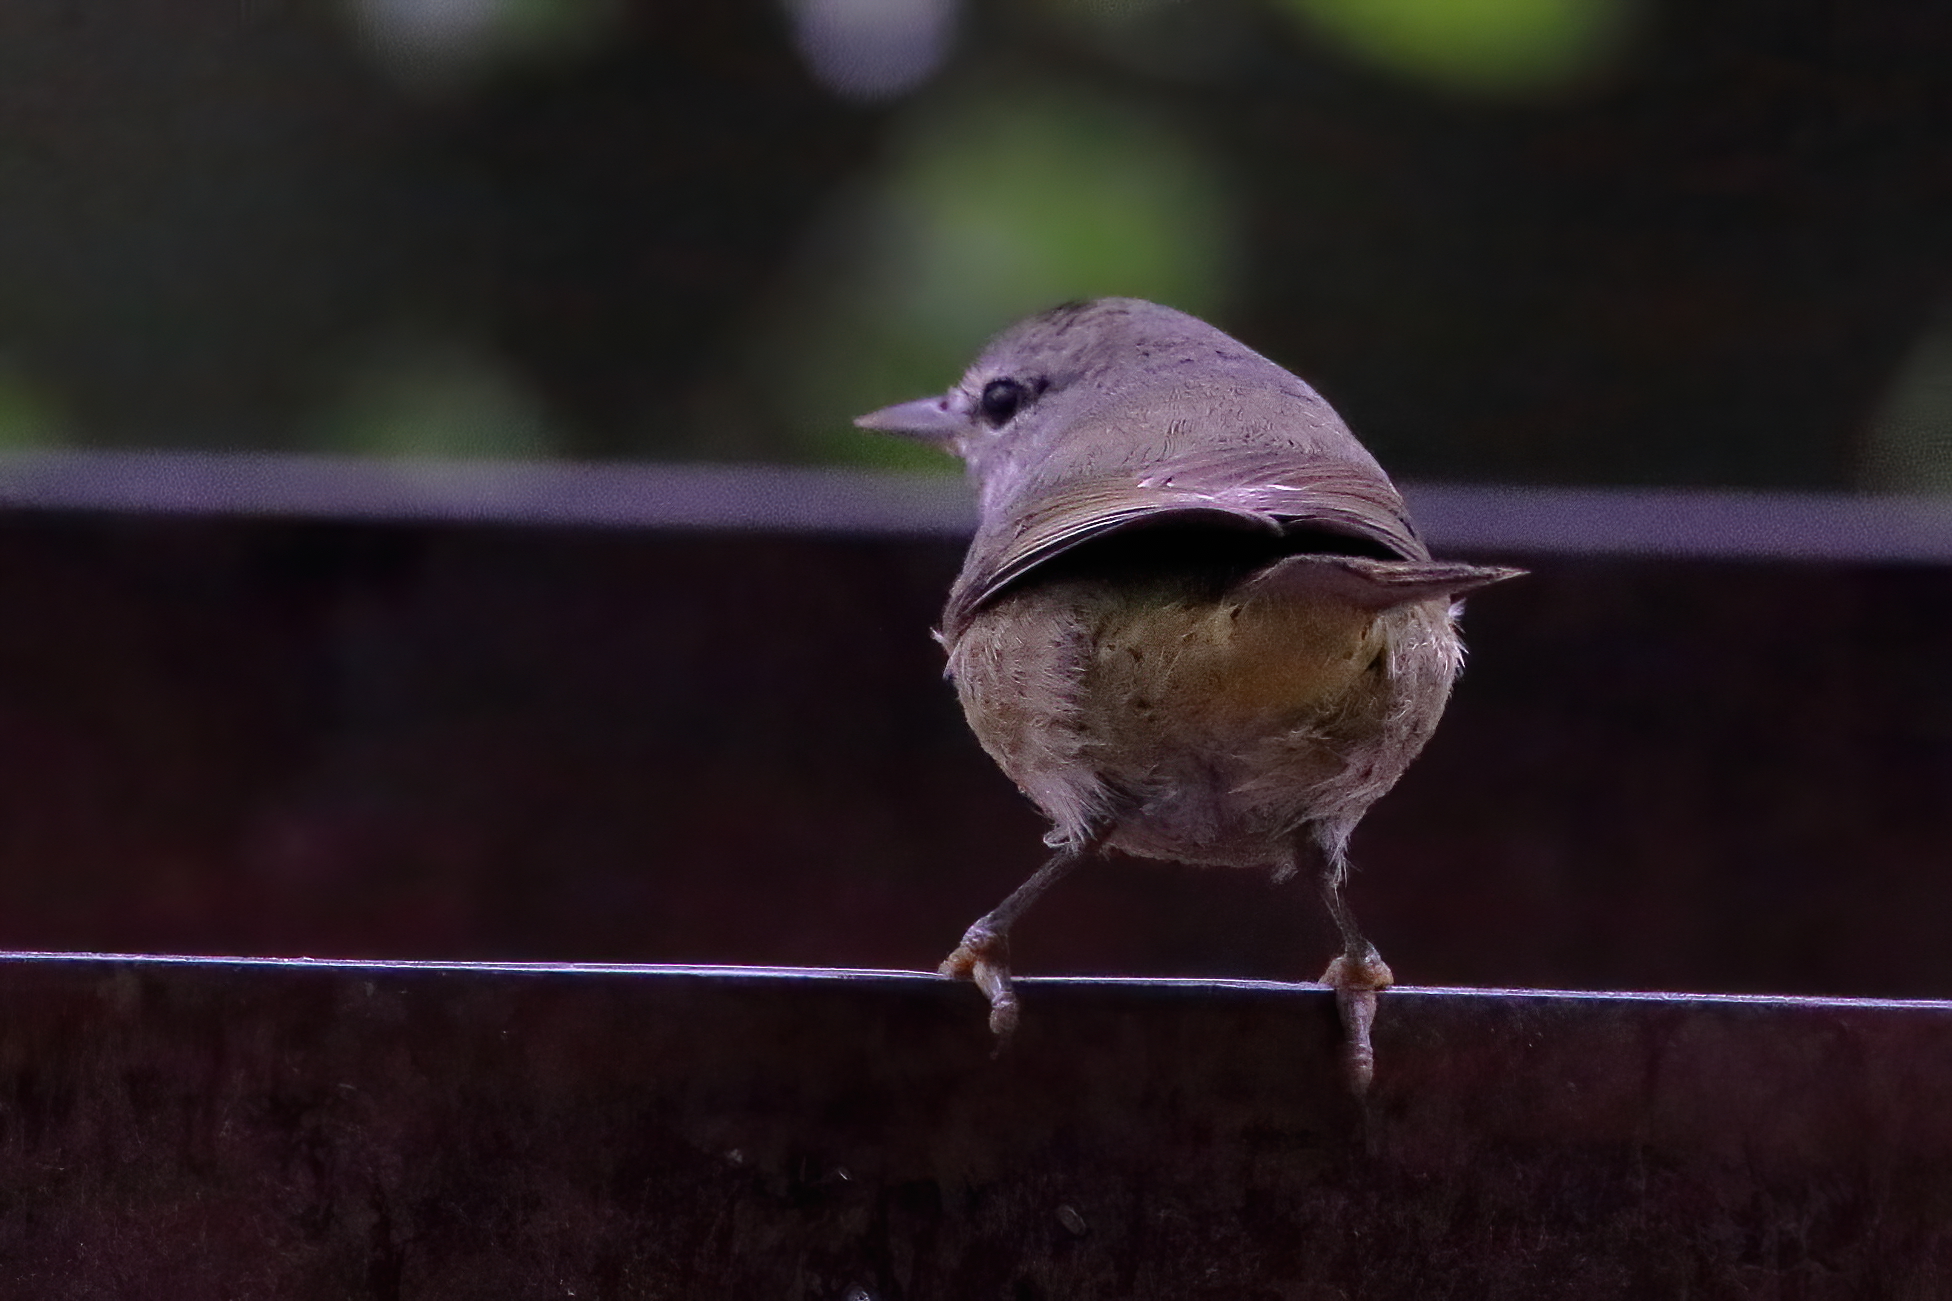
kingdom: Animalia
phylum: Chordata
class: Aves
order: Passeriformes
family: Parulidae
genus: Leiothlypis
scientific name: Leiothlypis celata
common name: Orange-crowned warbler
